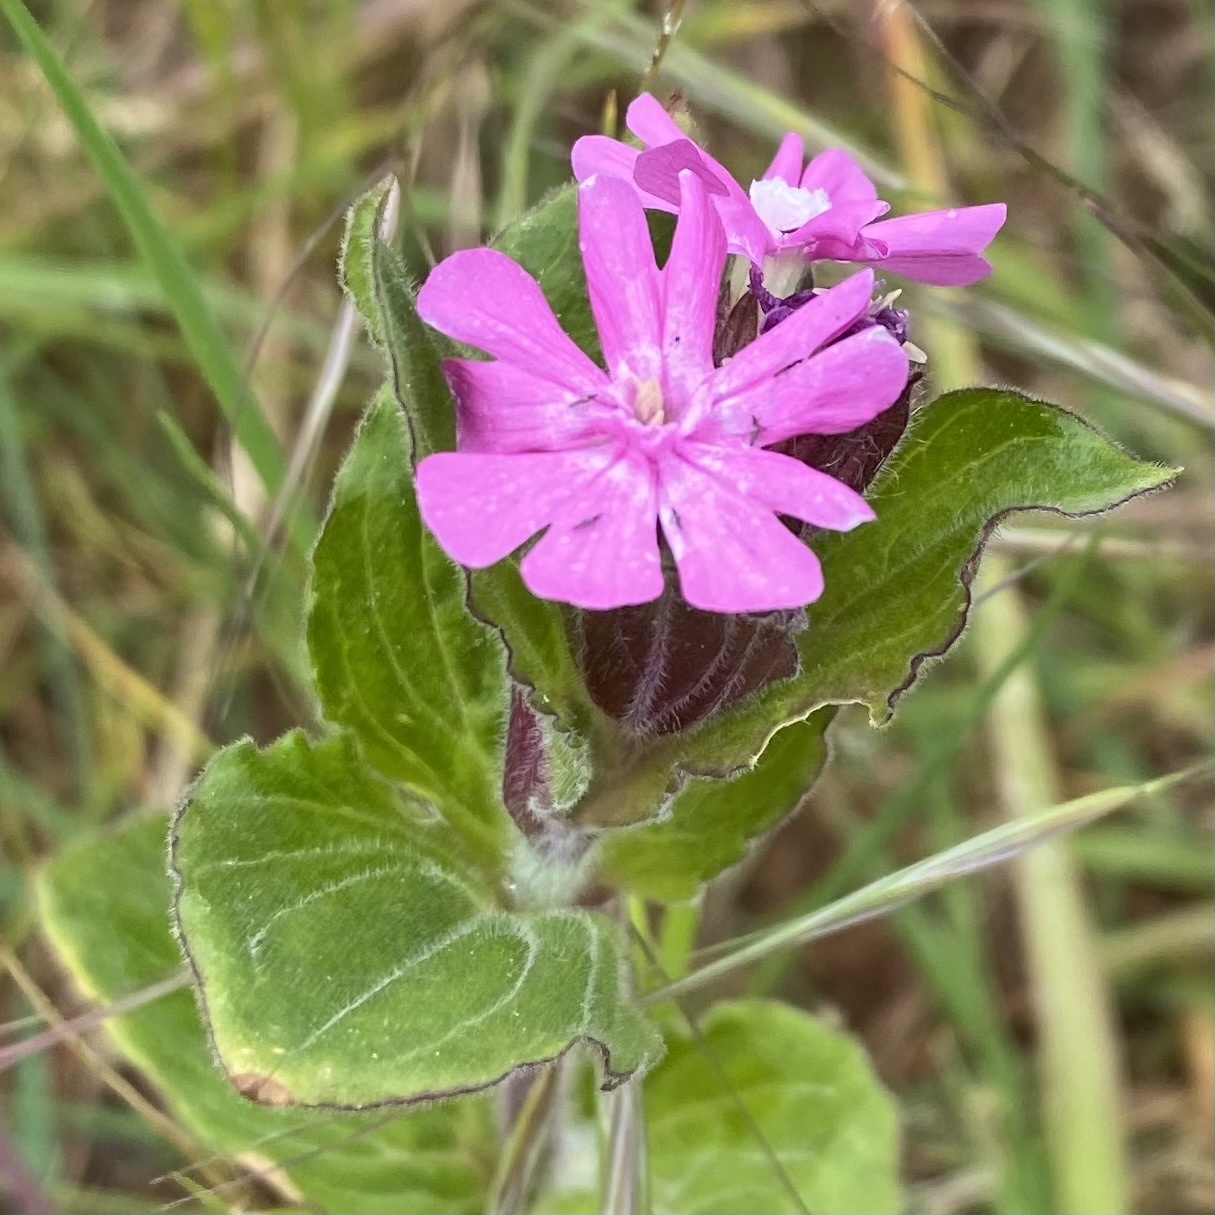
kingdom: Plantae
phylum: Tracheophyta
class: Magnoliopsida
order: Caryophyllales
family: Caryophyllaceae
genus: Silene
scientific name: Silene dioica
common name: Red campion
